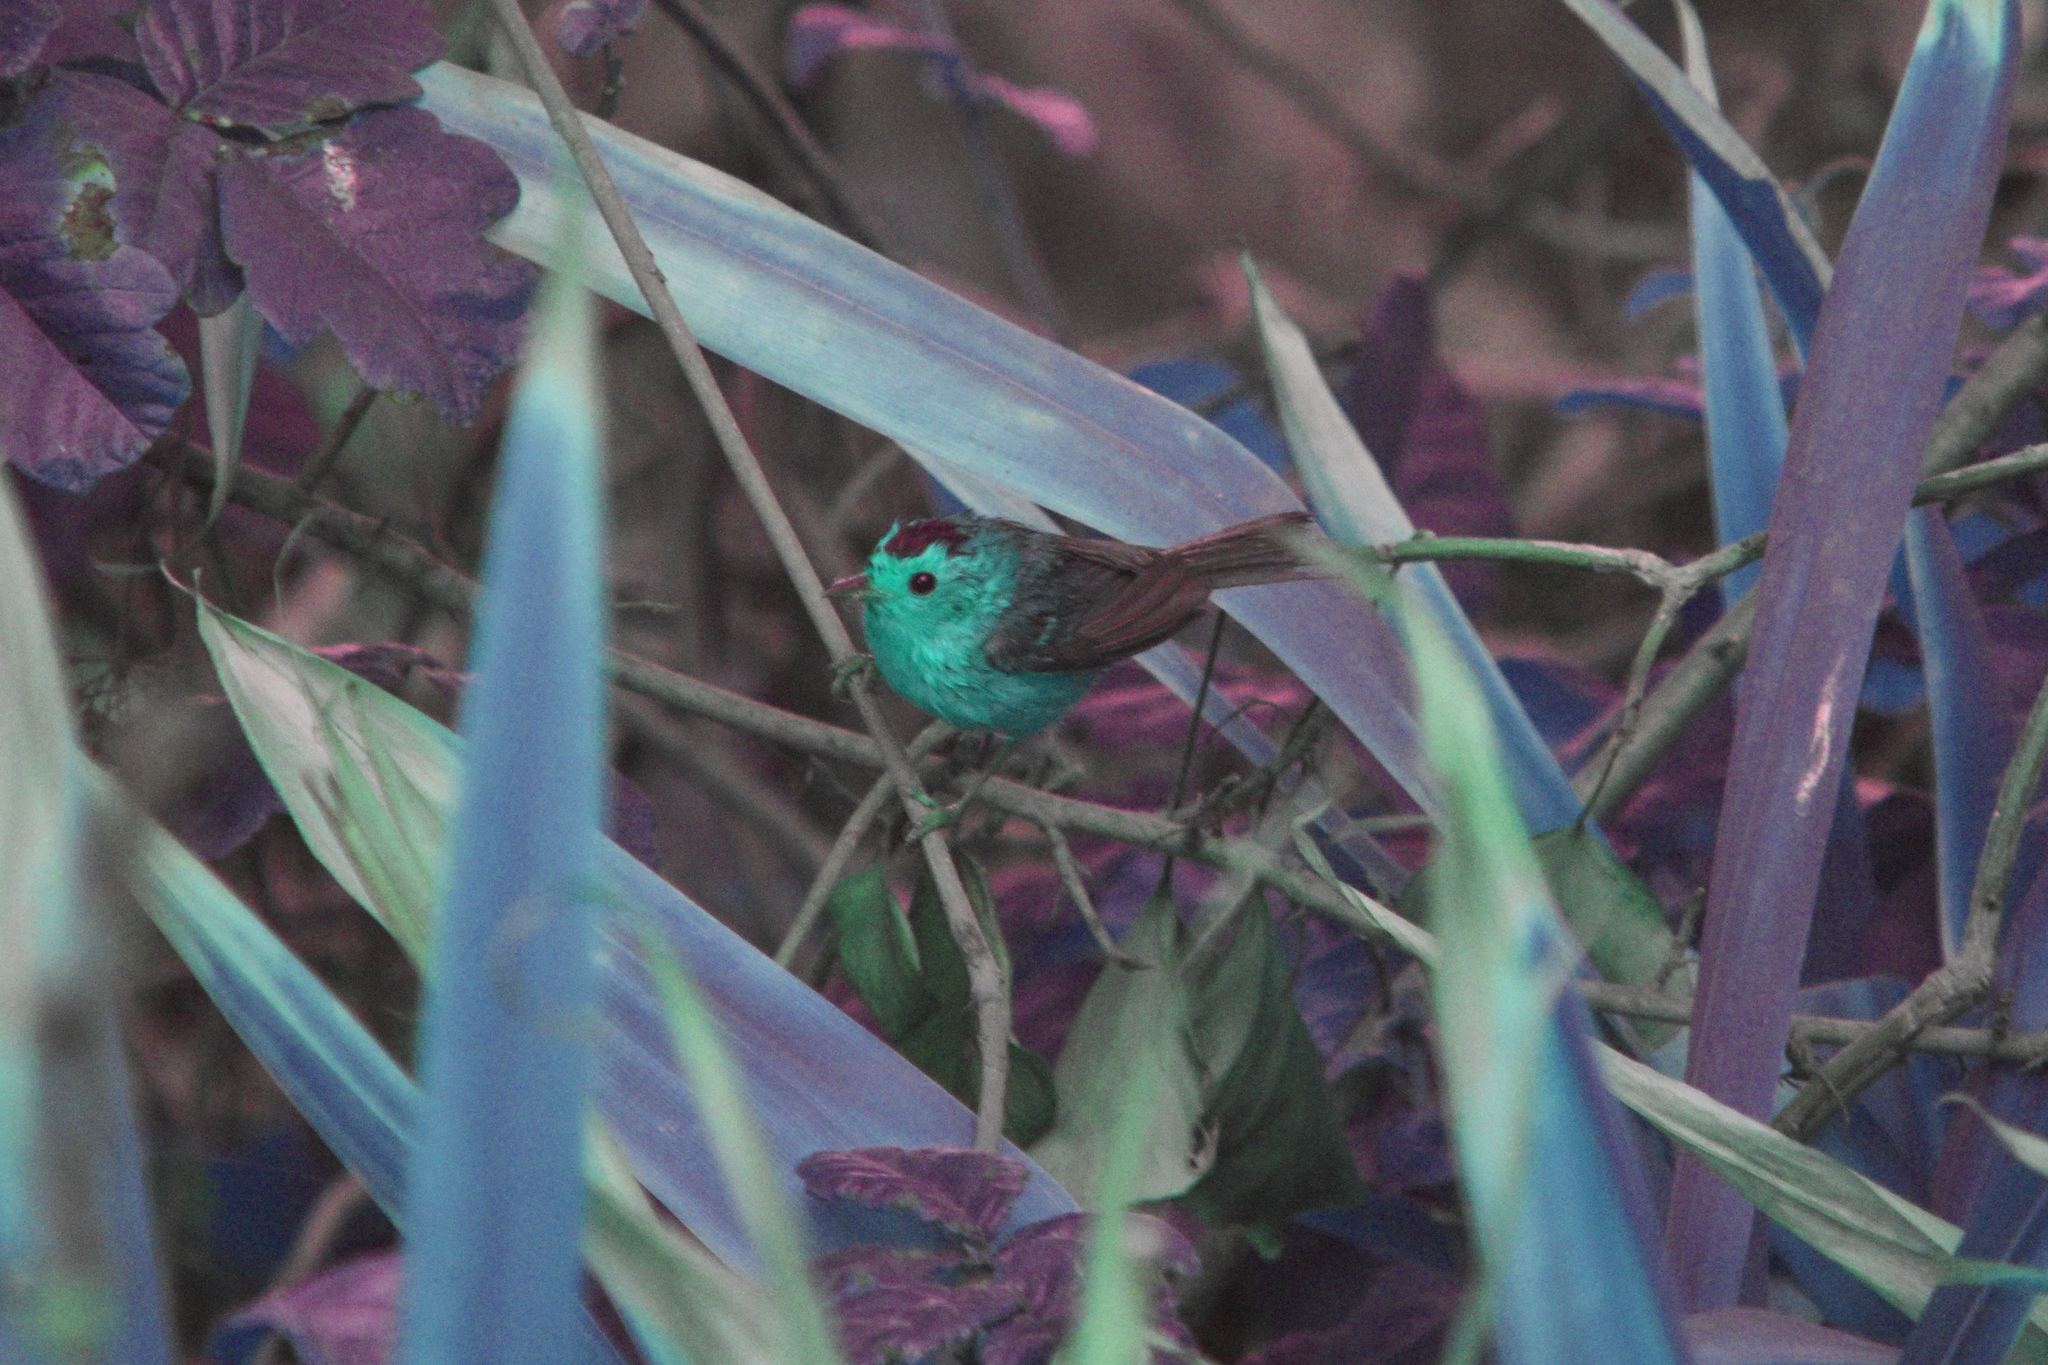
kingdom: Animalia
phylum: Chordata
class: Aves
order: Passeriformes
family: Parulidae
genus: Cardellina
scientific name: Cardellina pusilla
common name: Wilson's warbler
